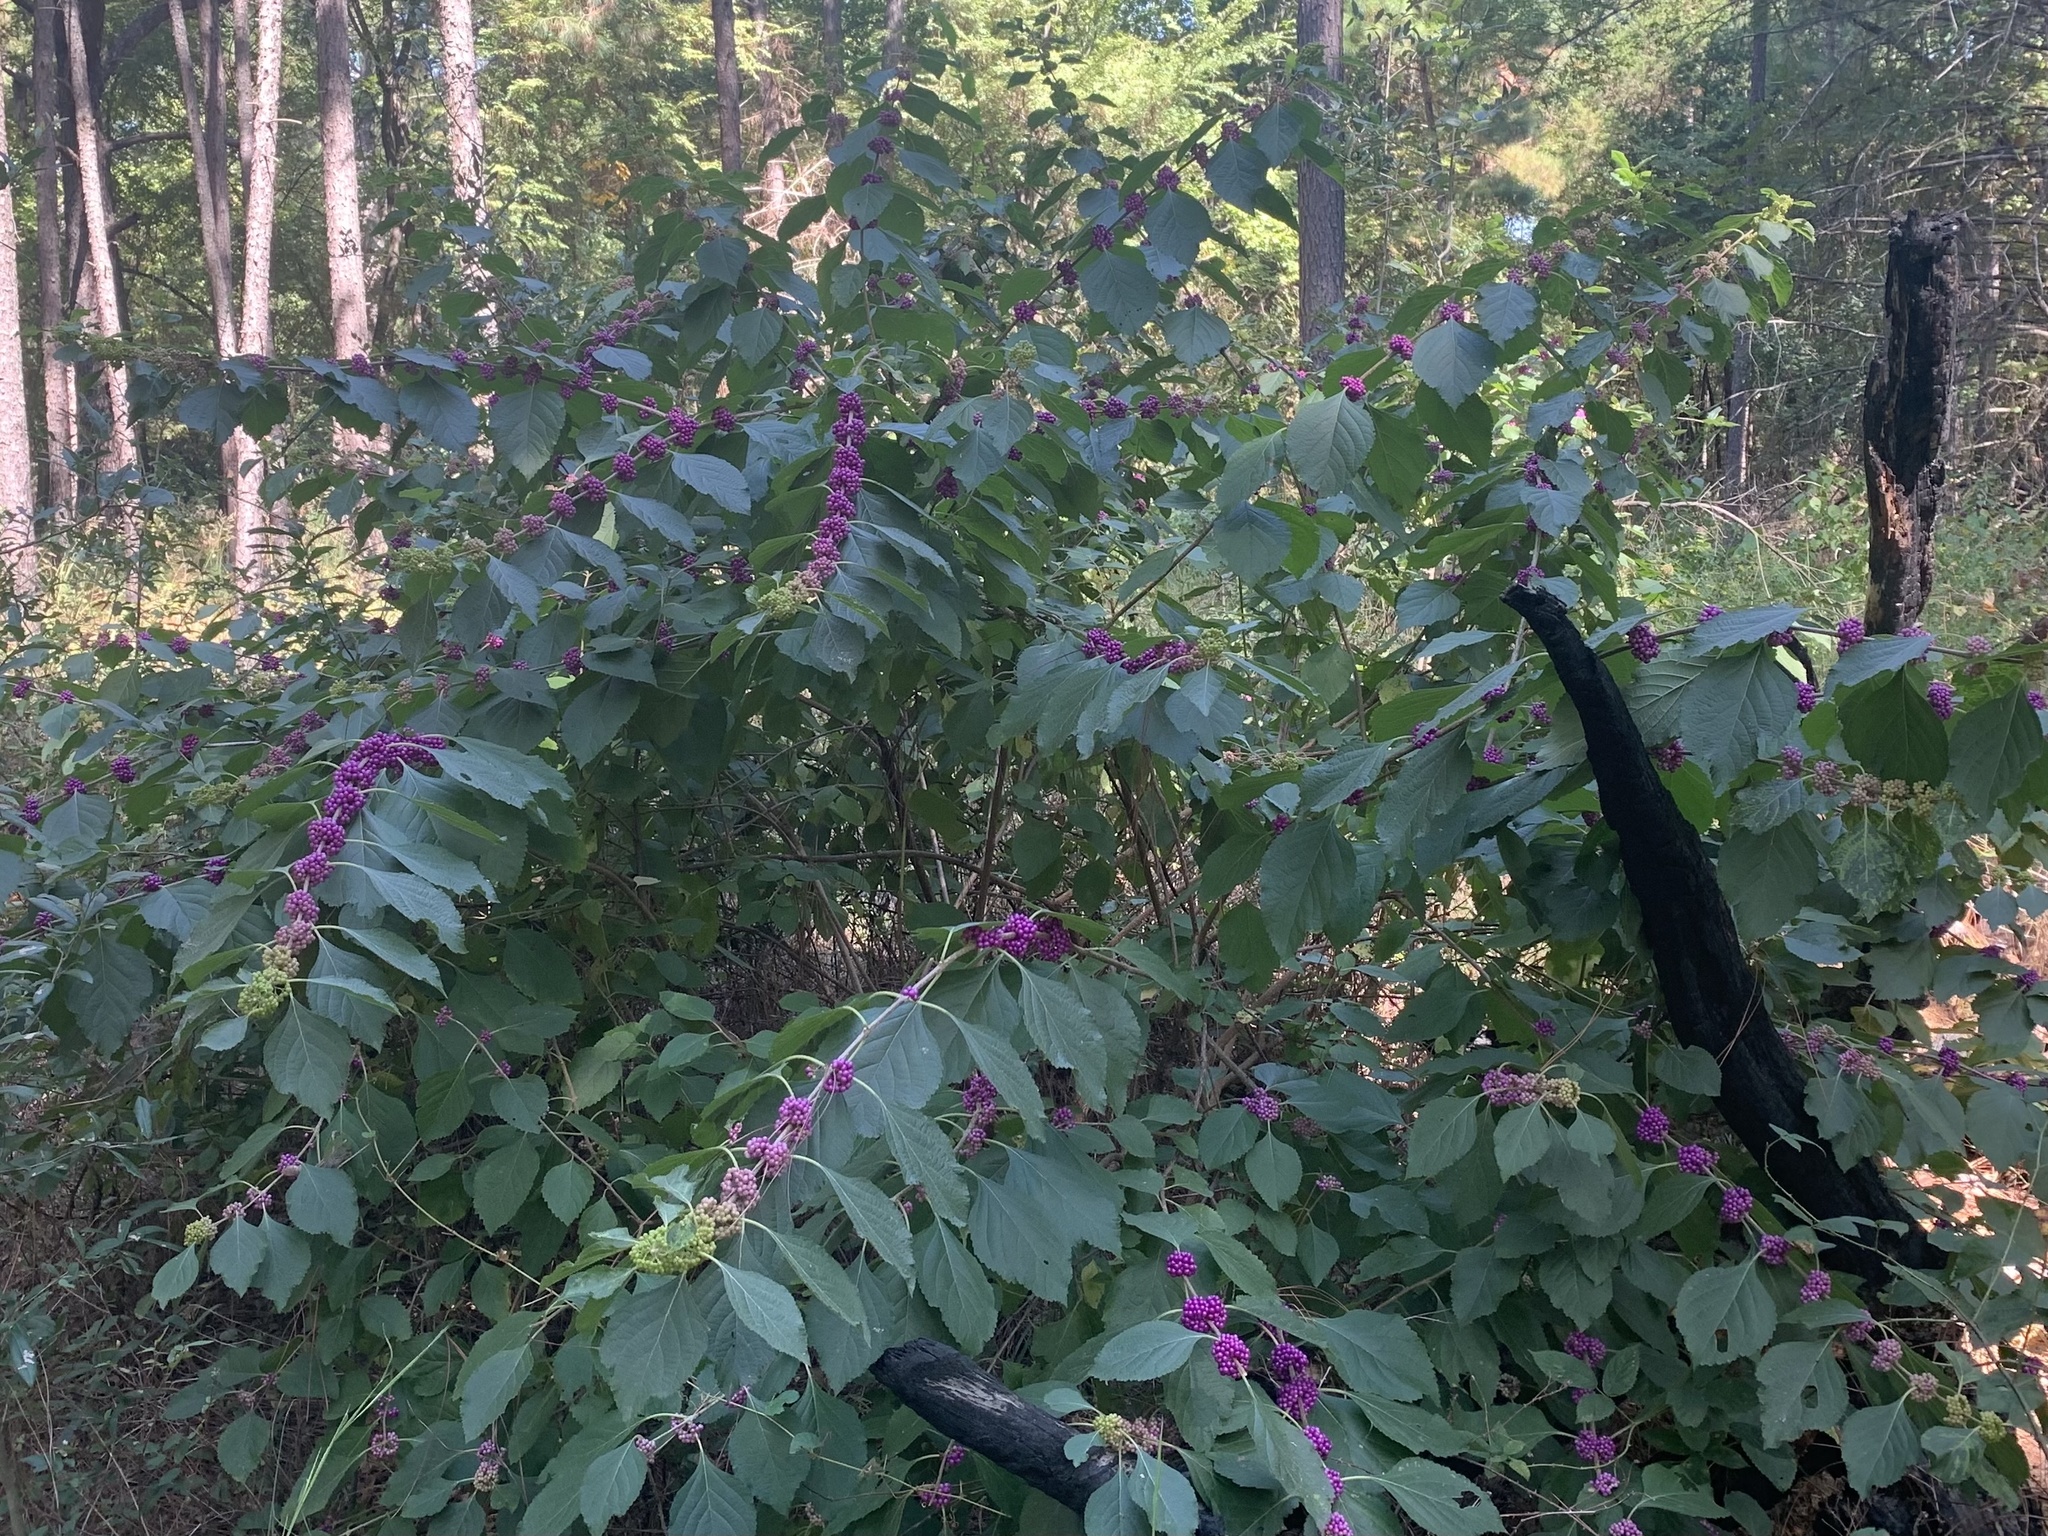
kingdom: Plantae
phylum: Tracheophyta
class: Magnoliopsida
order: Lamiales
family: Lamiaceae
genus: Callicarpa
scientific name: Callicarpa americana
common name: American beautyberry
